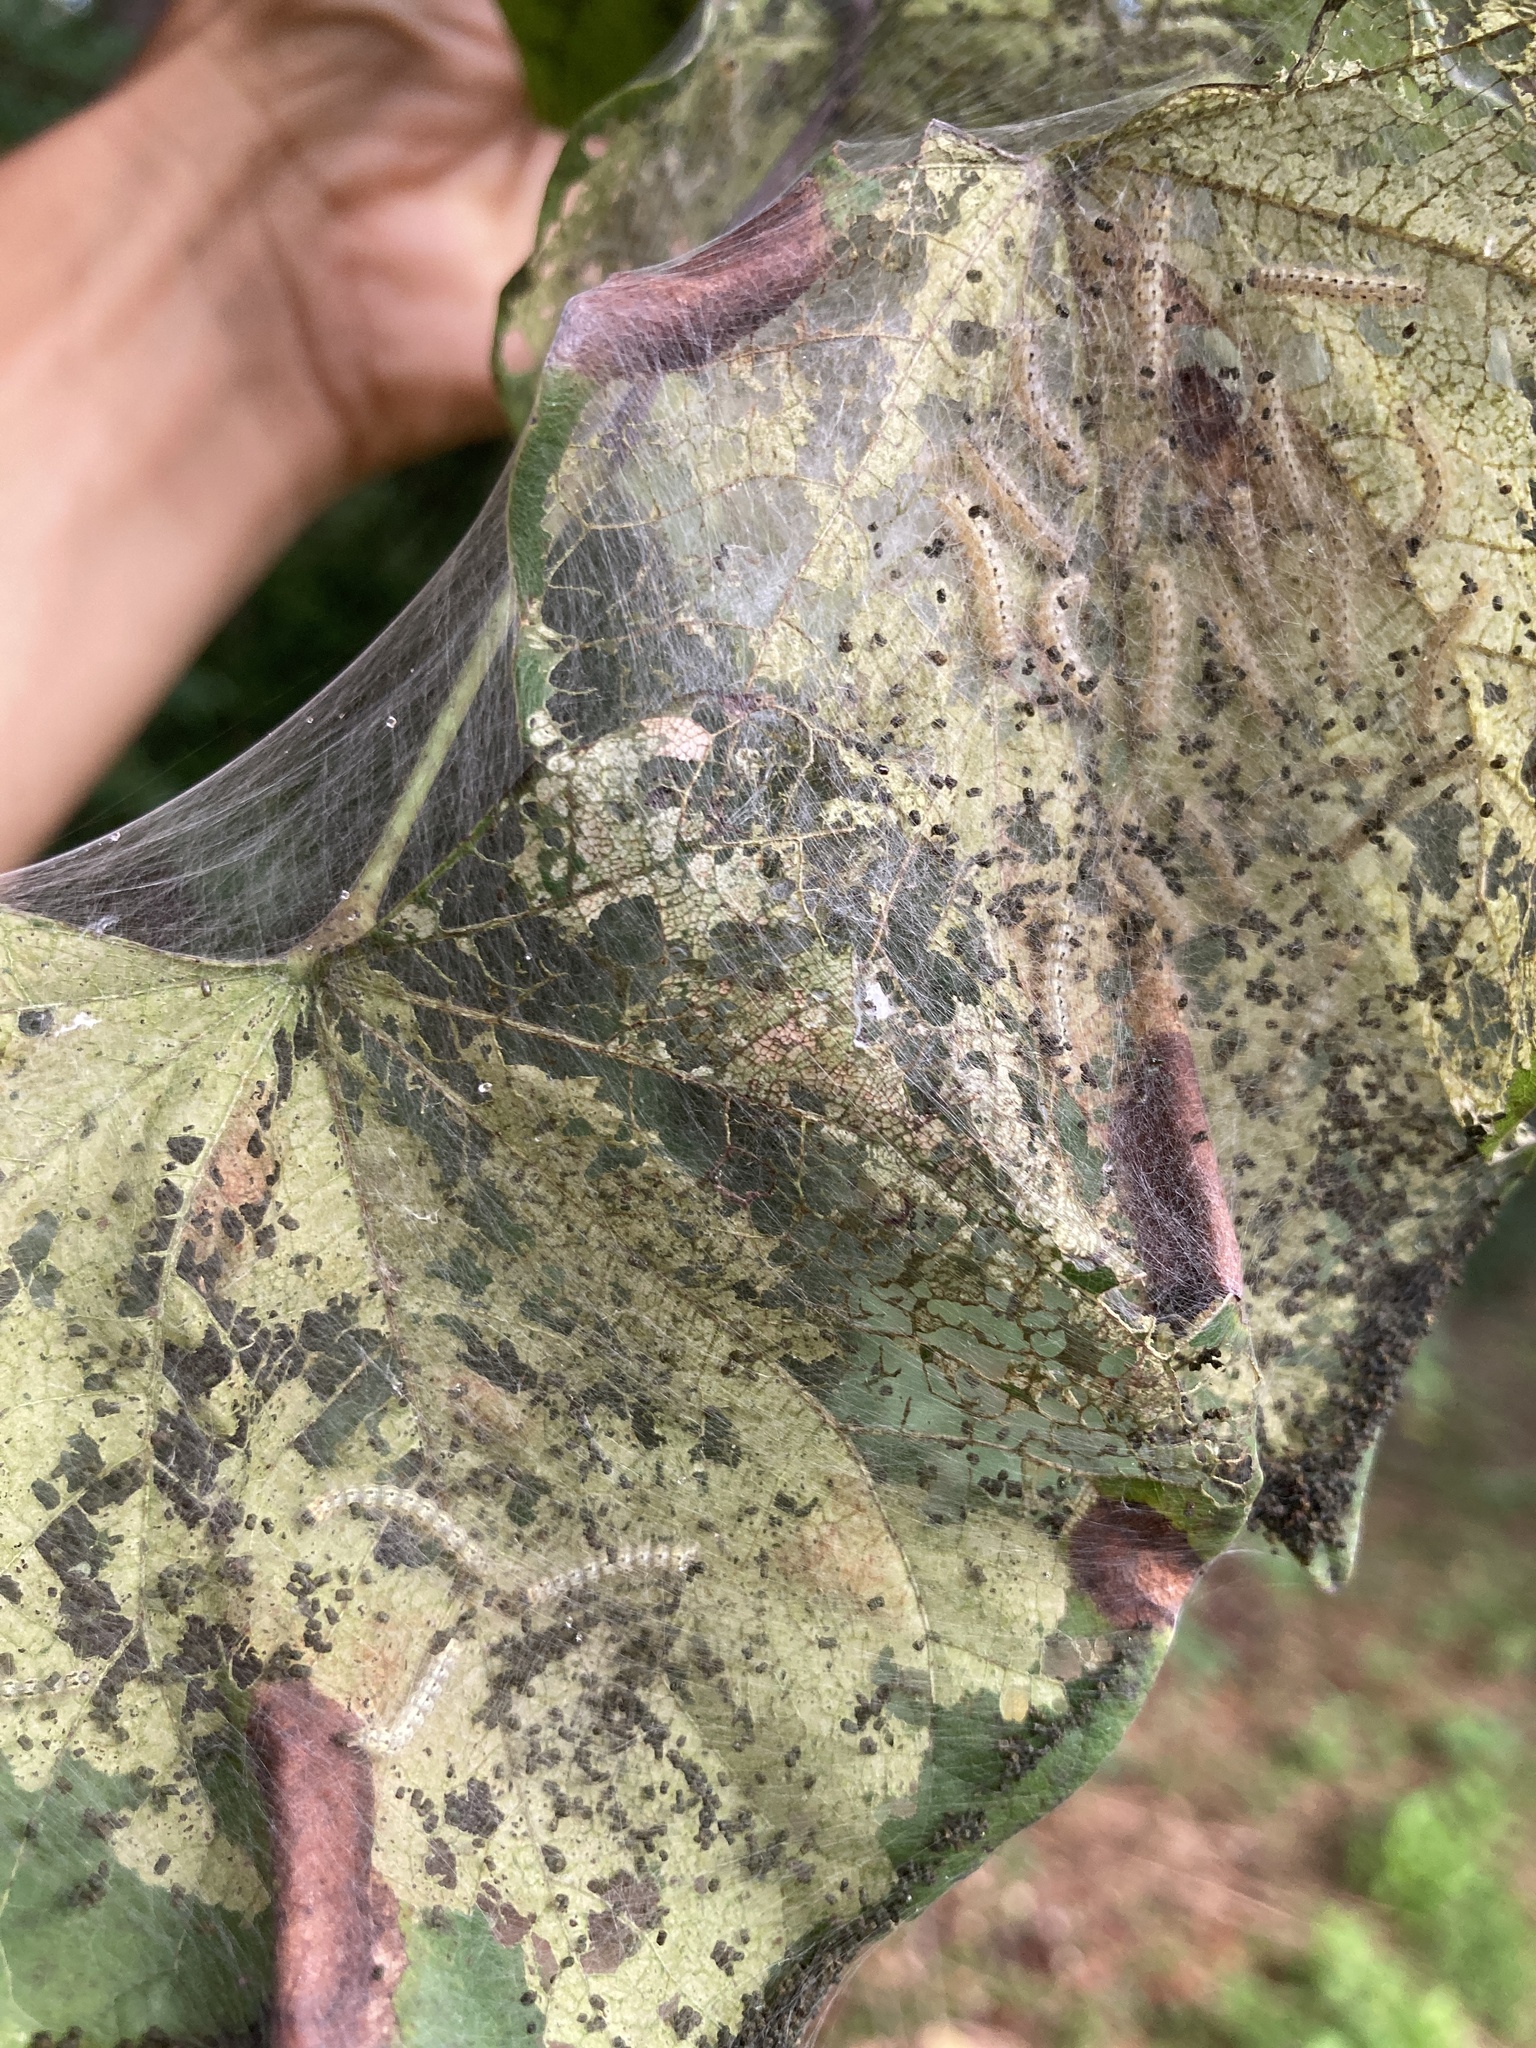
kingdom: Animalia
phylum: Arthropoda
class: Insecta
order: Lepidoptera
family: Erebidae
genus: Hyphantria
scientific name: Hyphantria cunea
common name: American white moth
